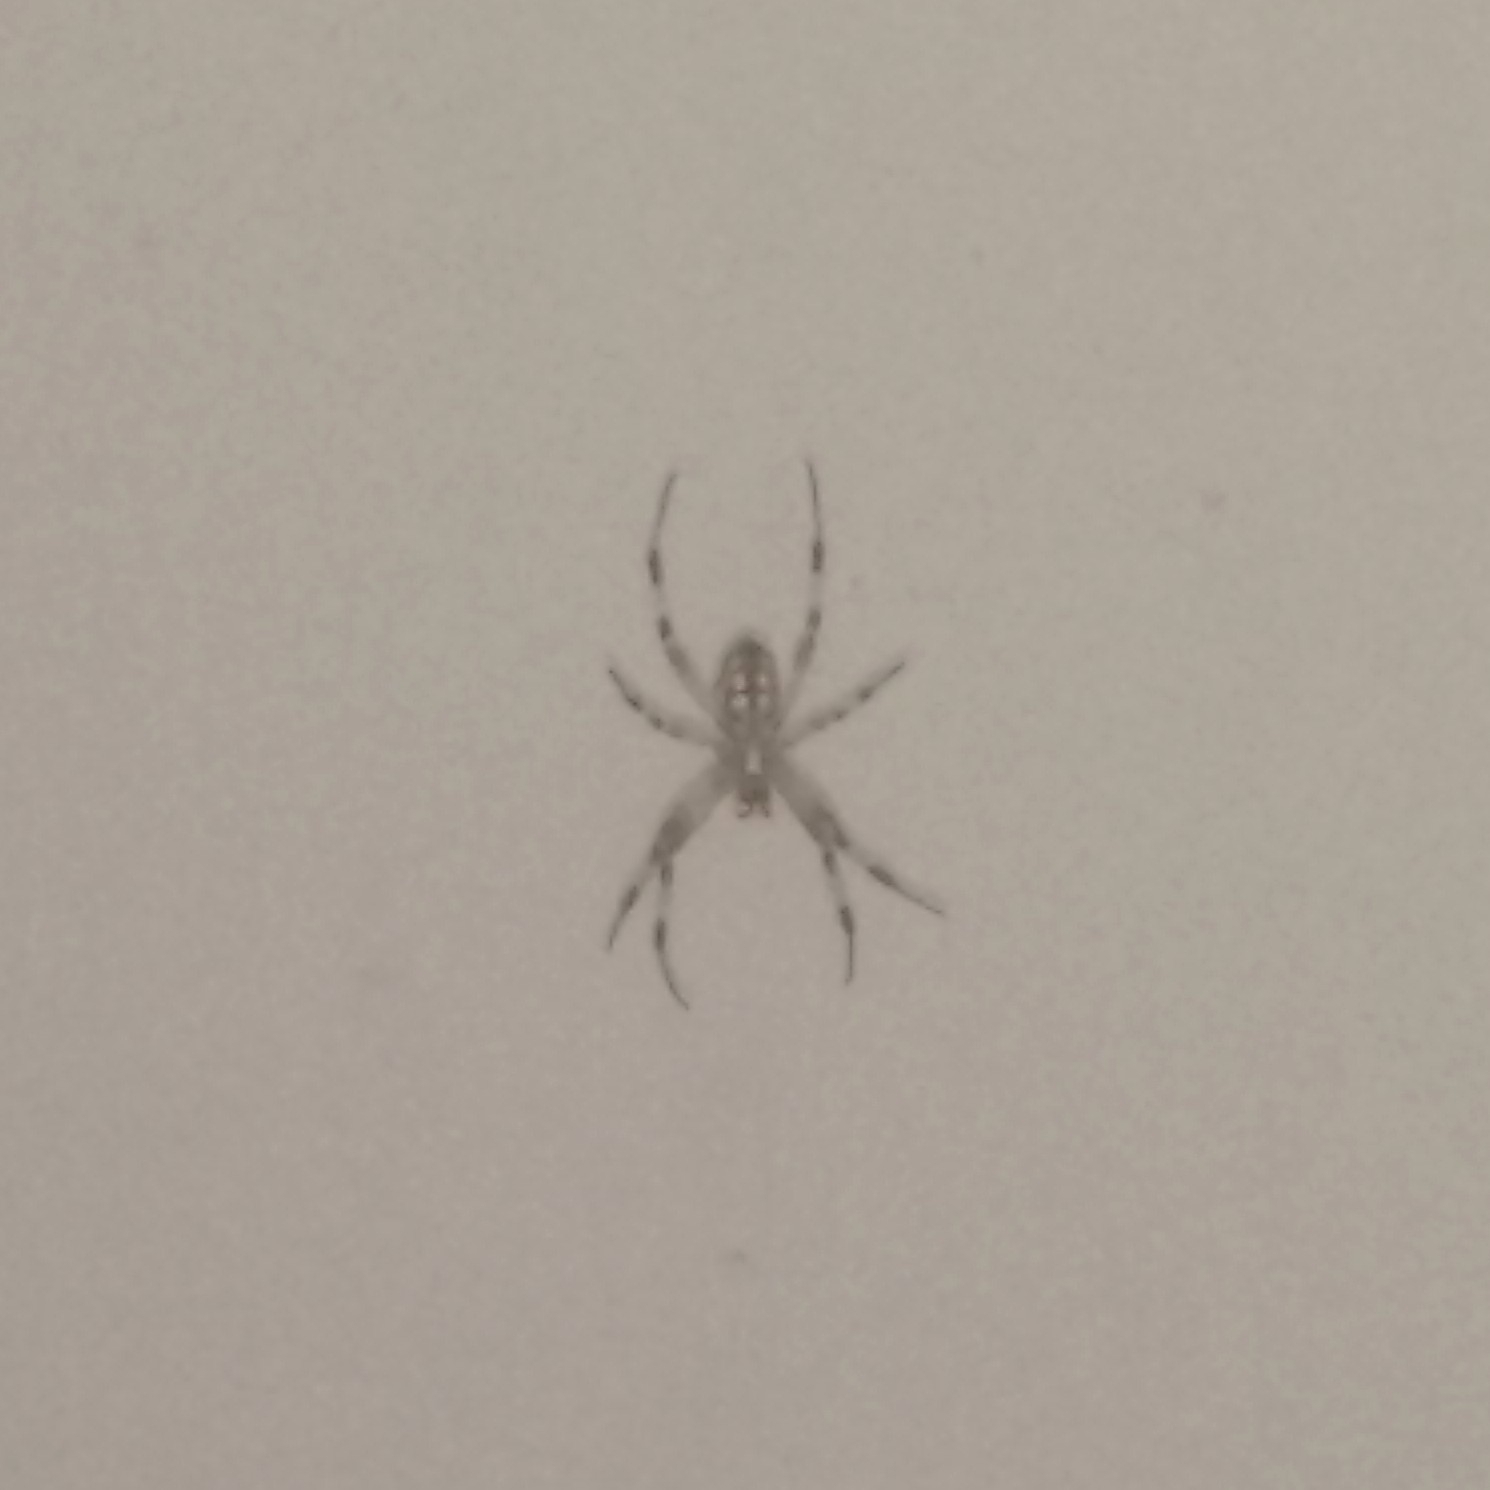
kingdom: Animalia
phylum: Arthropoda
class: Arachnida
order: Araneae
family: Araneidae
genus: Neoscona
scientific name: Neoscona oaxacensis
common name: Orb weavers
